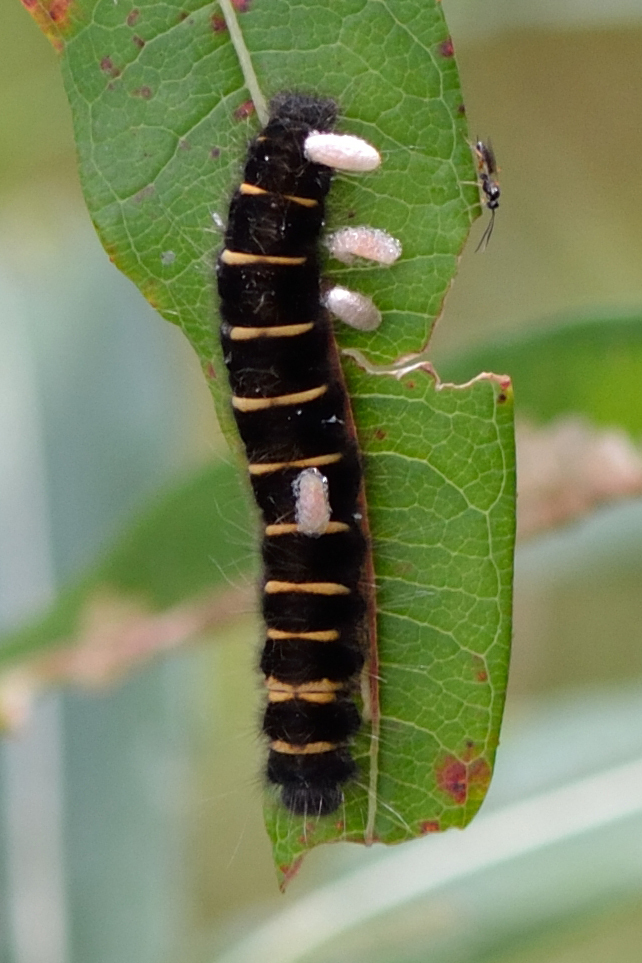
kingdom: Animalia
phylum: Arthropoda
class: Insecta
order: Lepidoptera
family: Lasiocampidae
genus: Macrothylacia
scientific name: Macrothylacia rubi
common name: Fox moth
